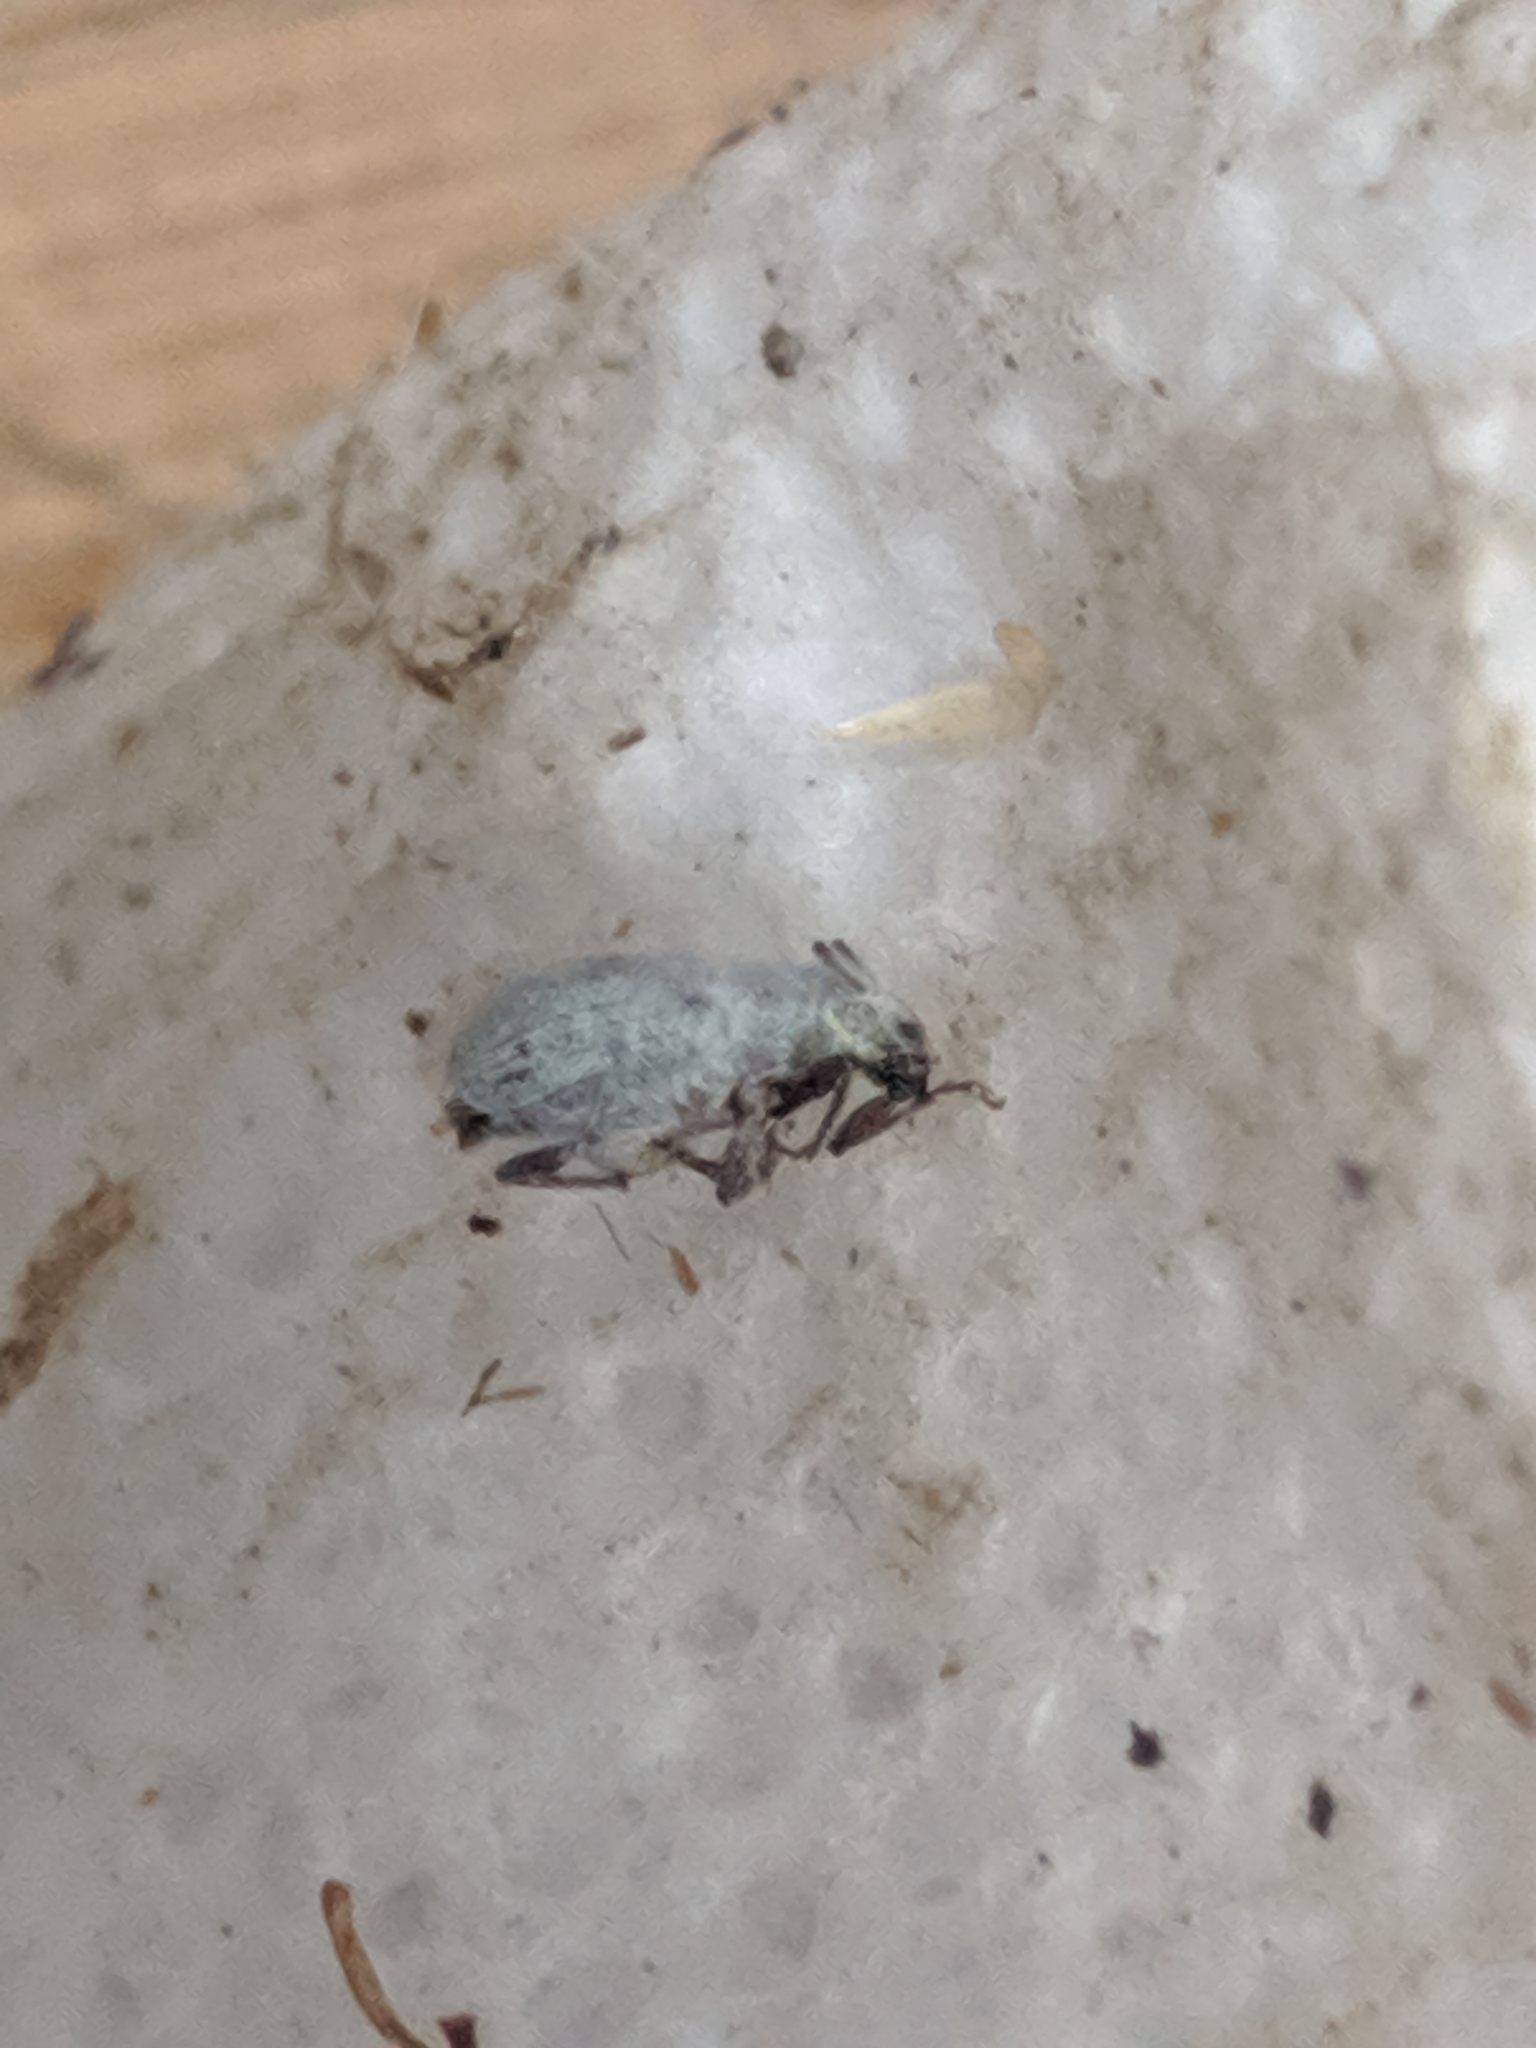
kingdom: Animalia
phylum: Arthropoda
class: Insecta
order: Coleoptera
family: Curculionidae
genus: Cyrtepistomus
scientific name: Cyrtepistomus castaneus
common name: Weevil
